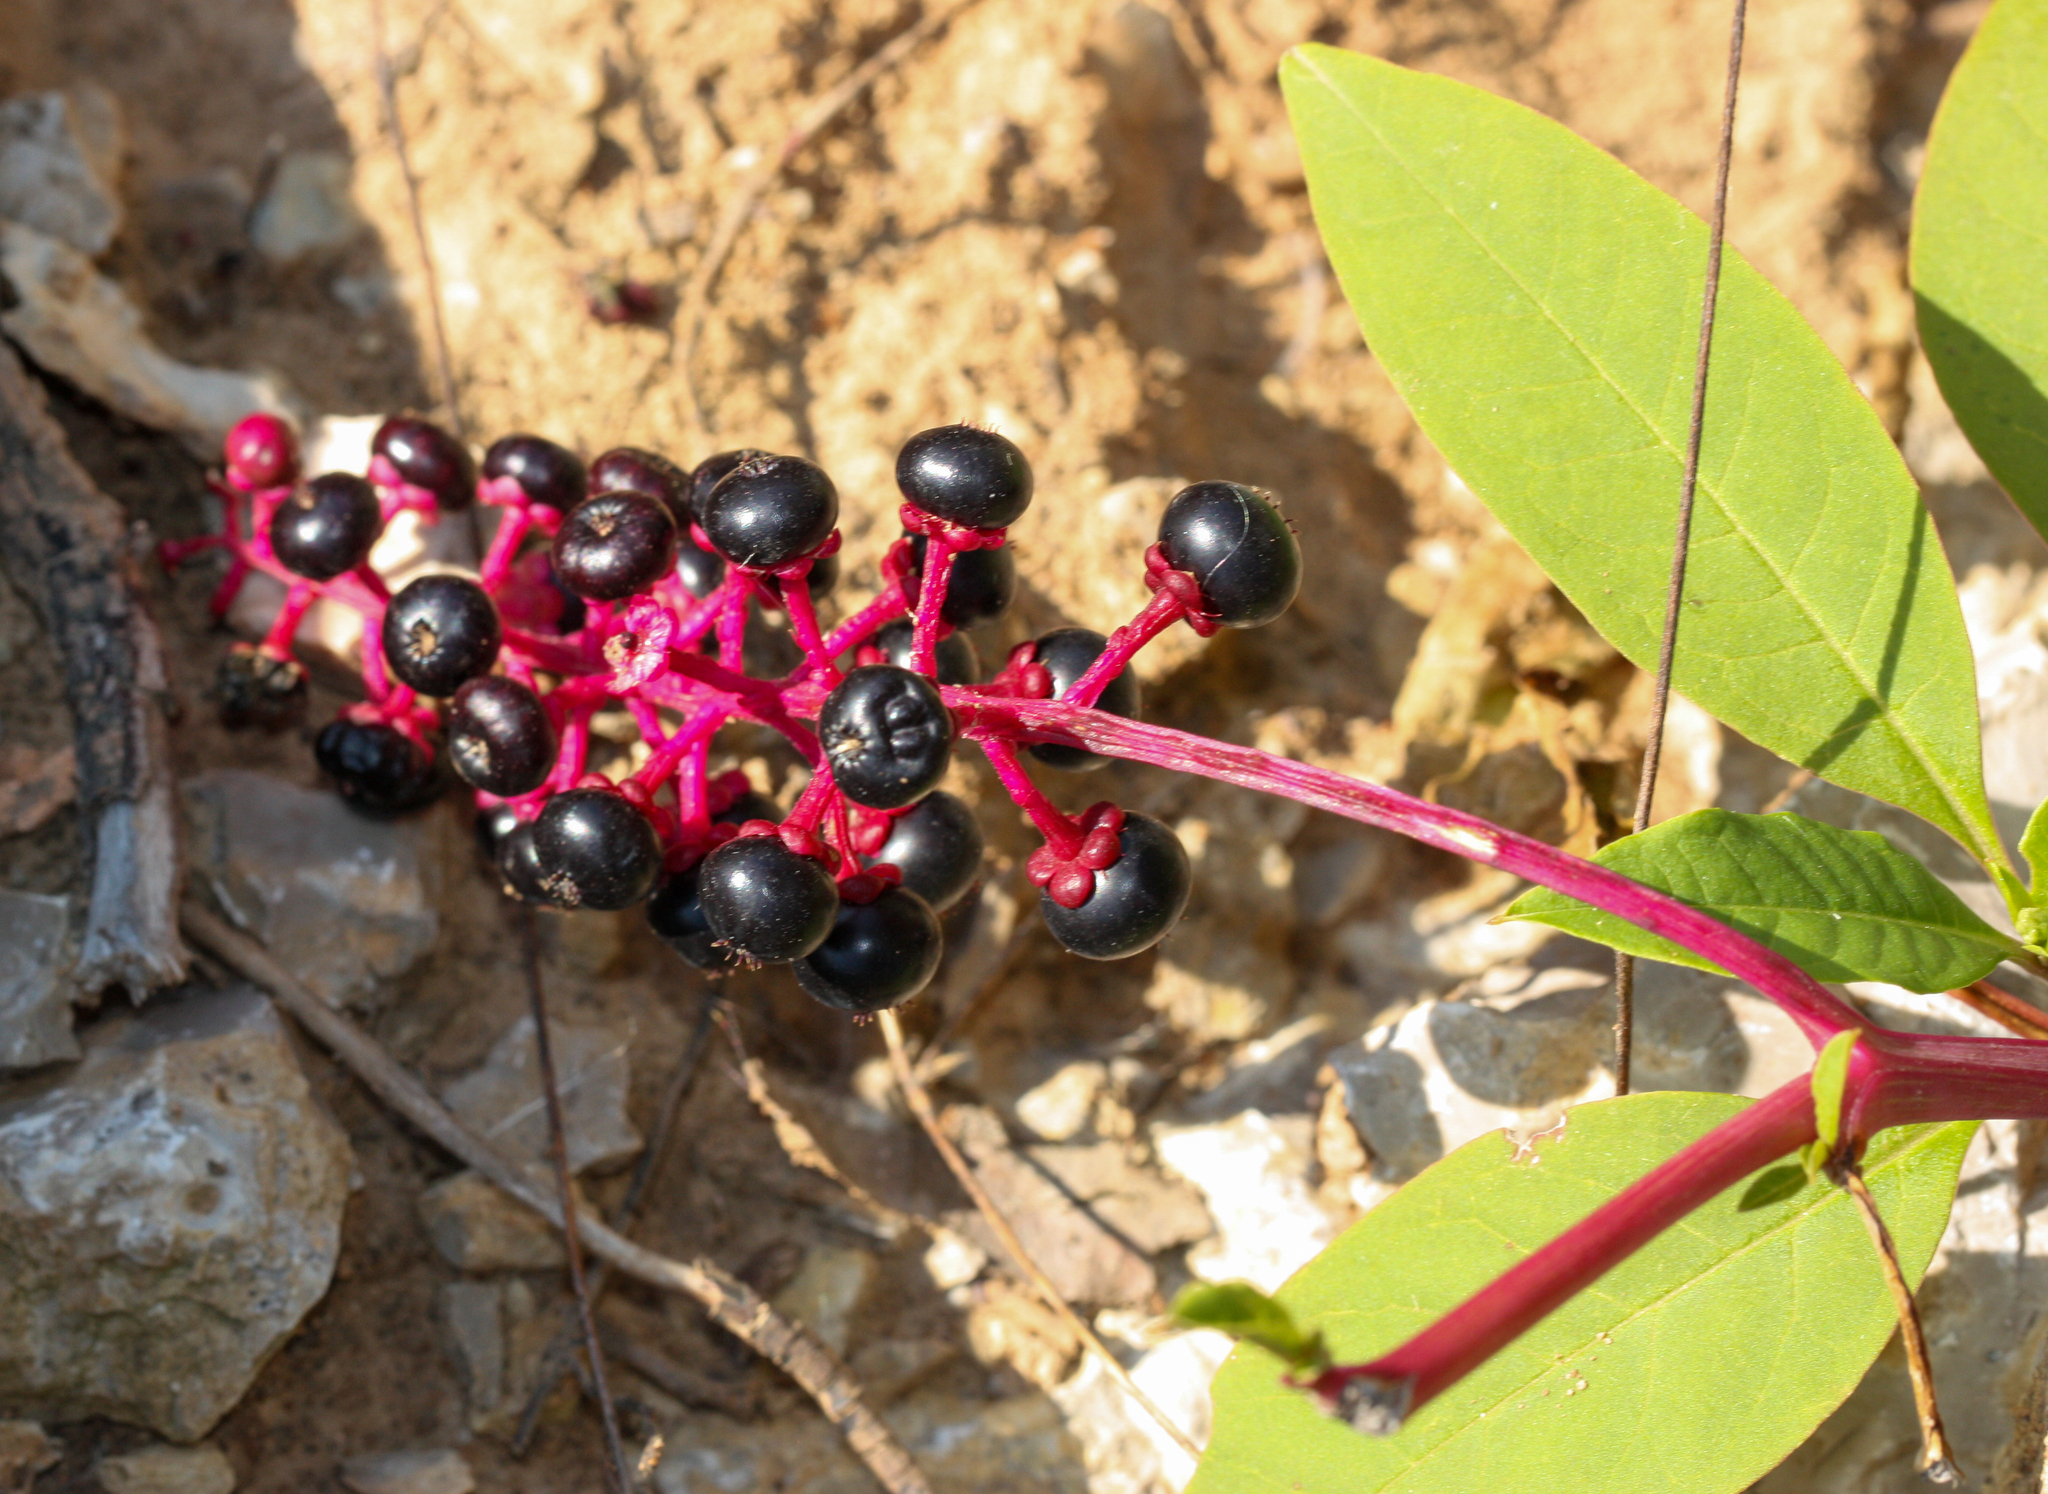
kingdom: Plantae
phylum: Tracheophyta
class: Magnoliopsida
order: Caryophyllales
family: Phytolaccaceae
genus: Phytolacca
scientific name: Phytolacca americana
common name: American pokeweed
